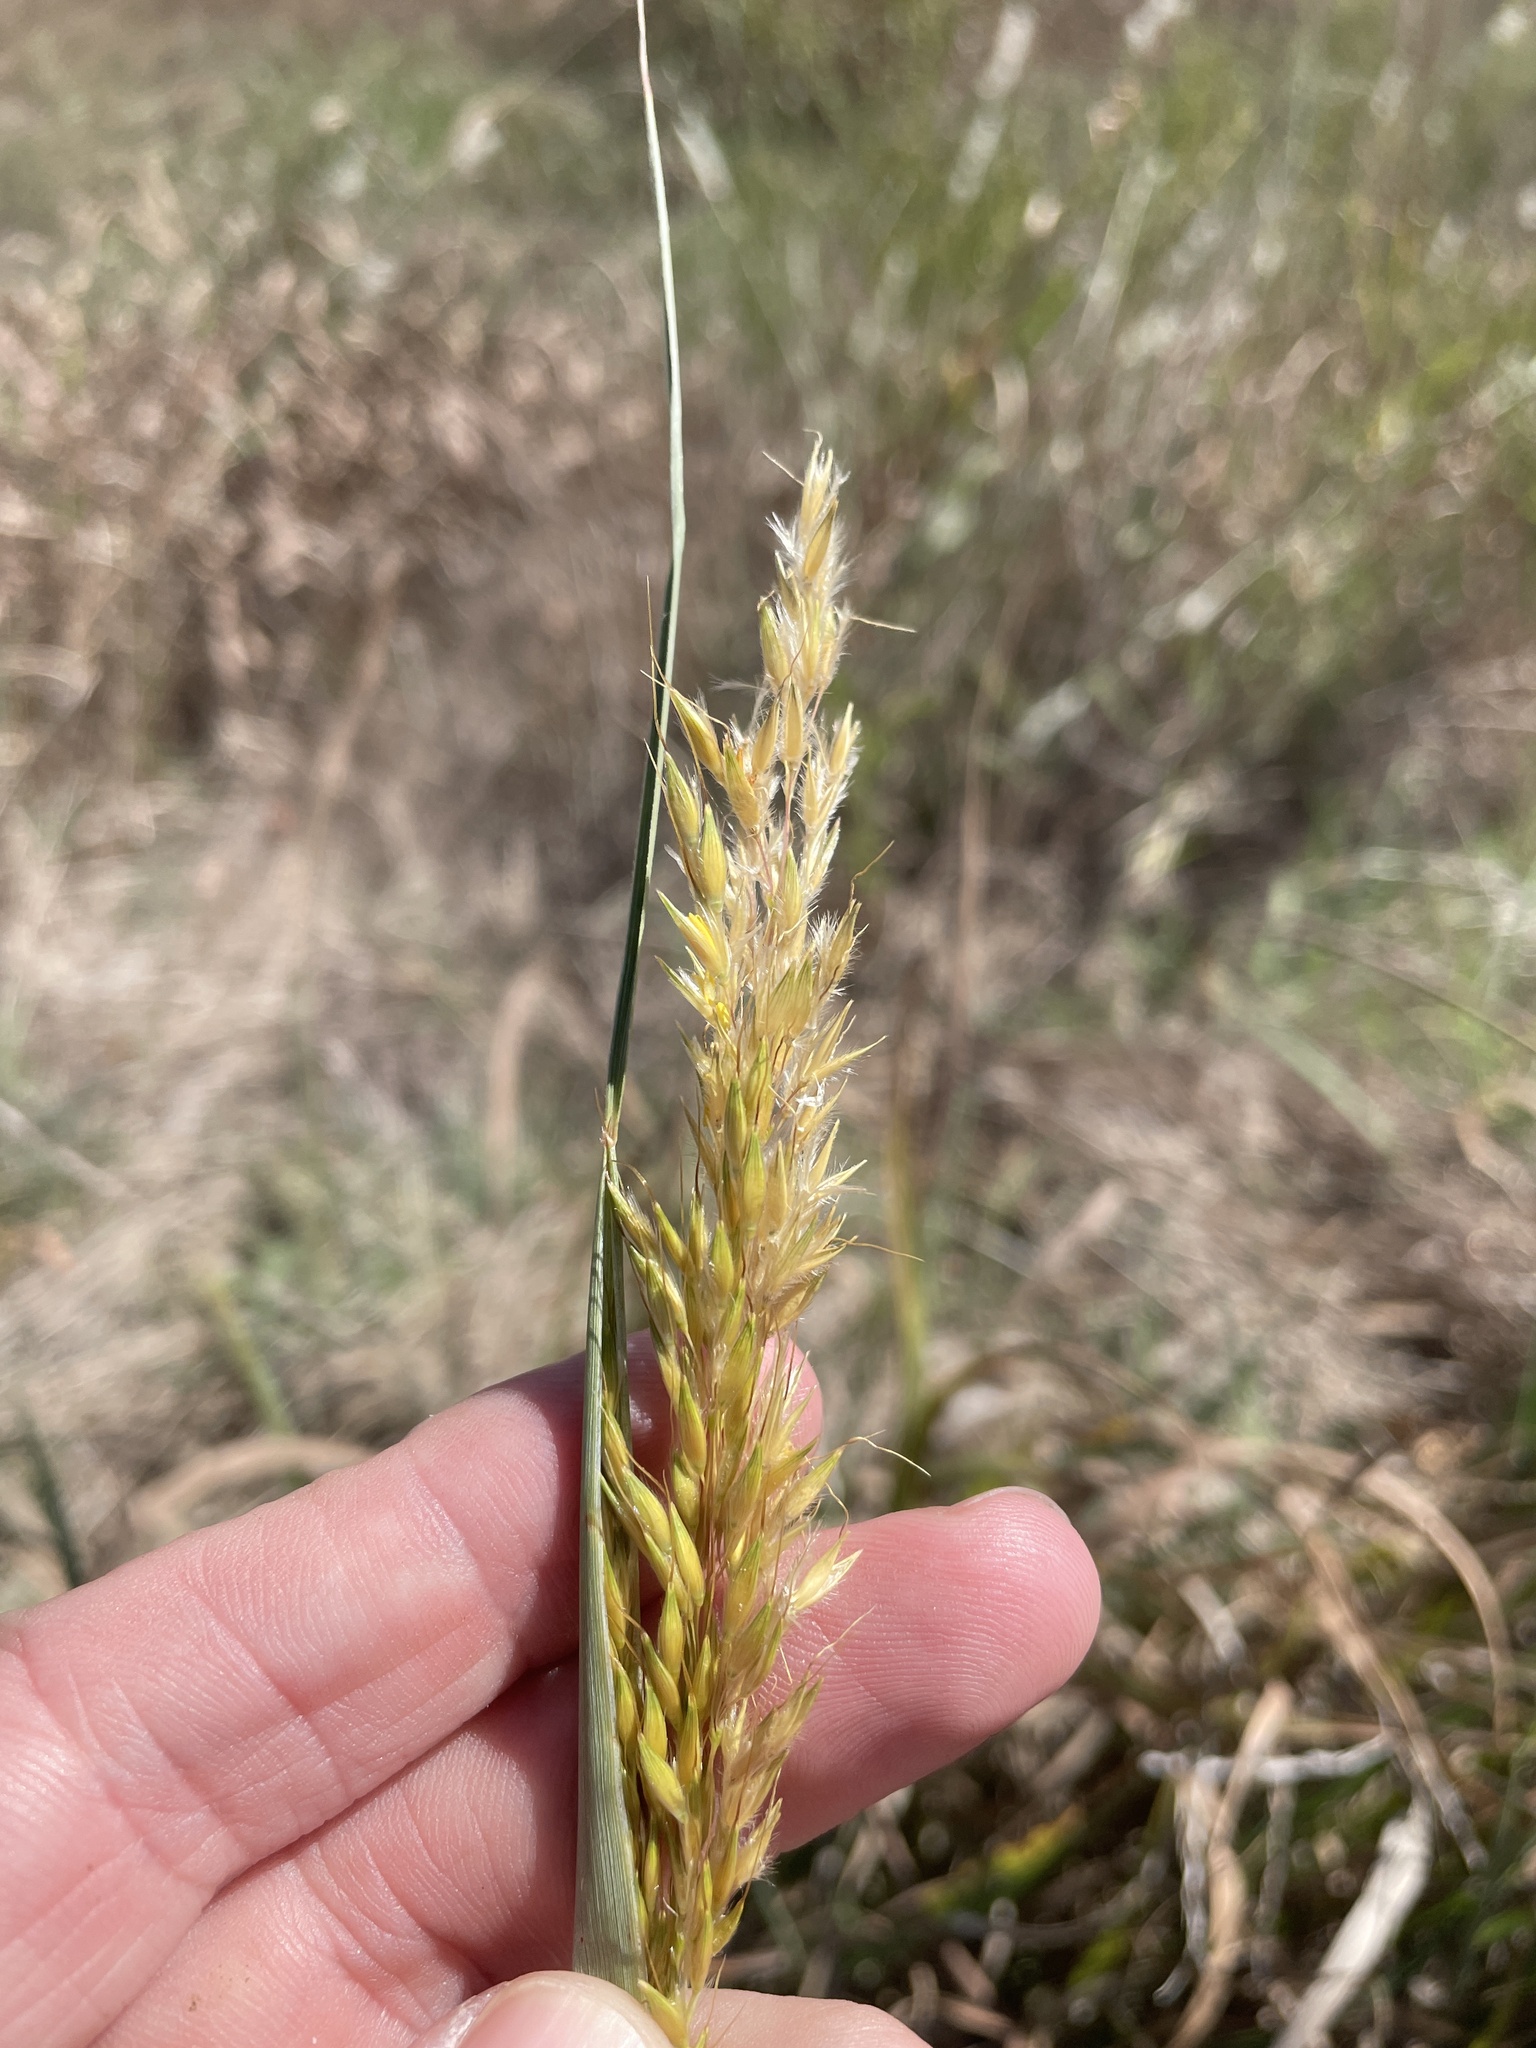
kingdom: Plantae
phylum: Tracheophyta
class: Liliopsida
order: Poales
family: Poaceae
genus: Sorghastrum
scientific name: Sorghastrum nutans
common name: Indian grass
